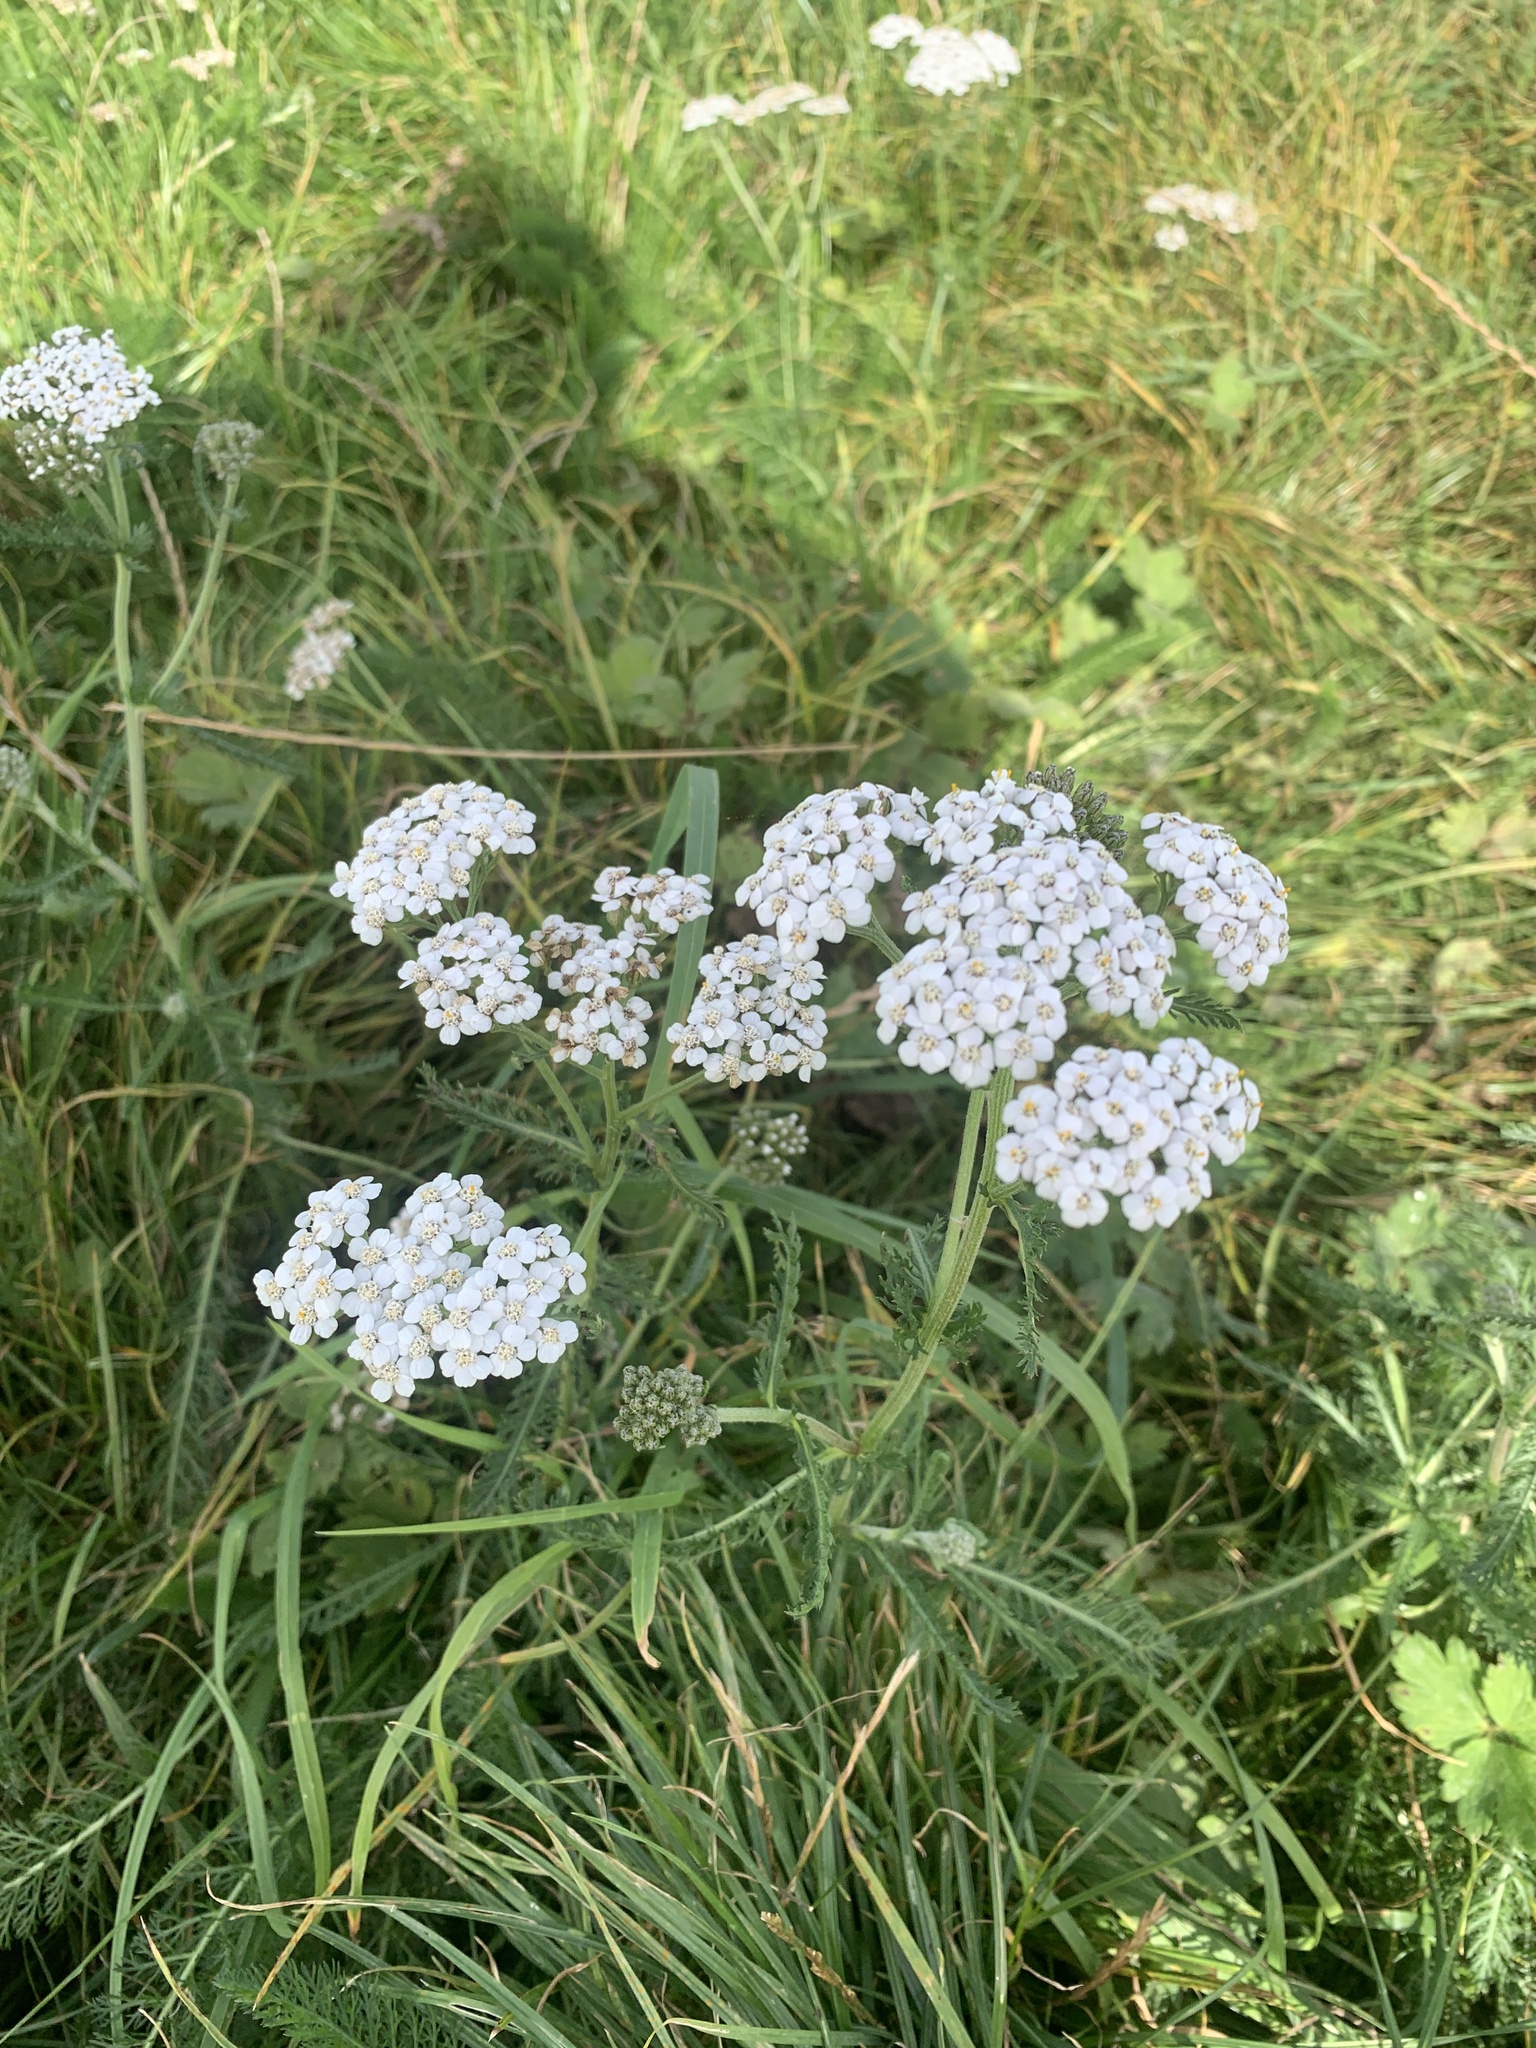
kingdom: Plantae
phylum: Tracheophyta
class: Magnoliopsida
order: Asterales
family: Asteraceae
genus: Achillea
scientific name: Achillea millefolium
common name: Yarrow
